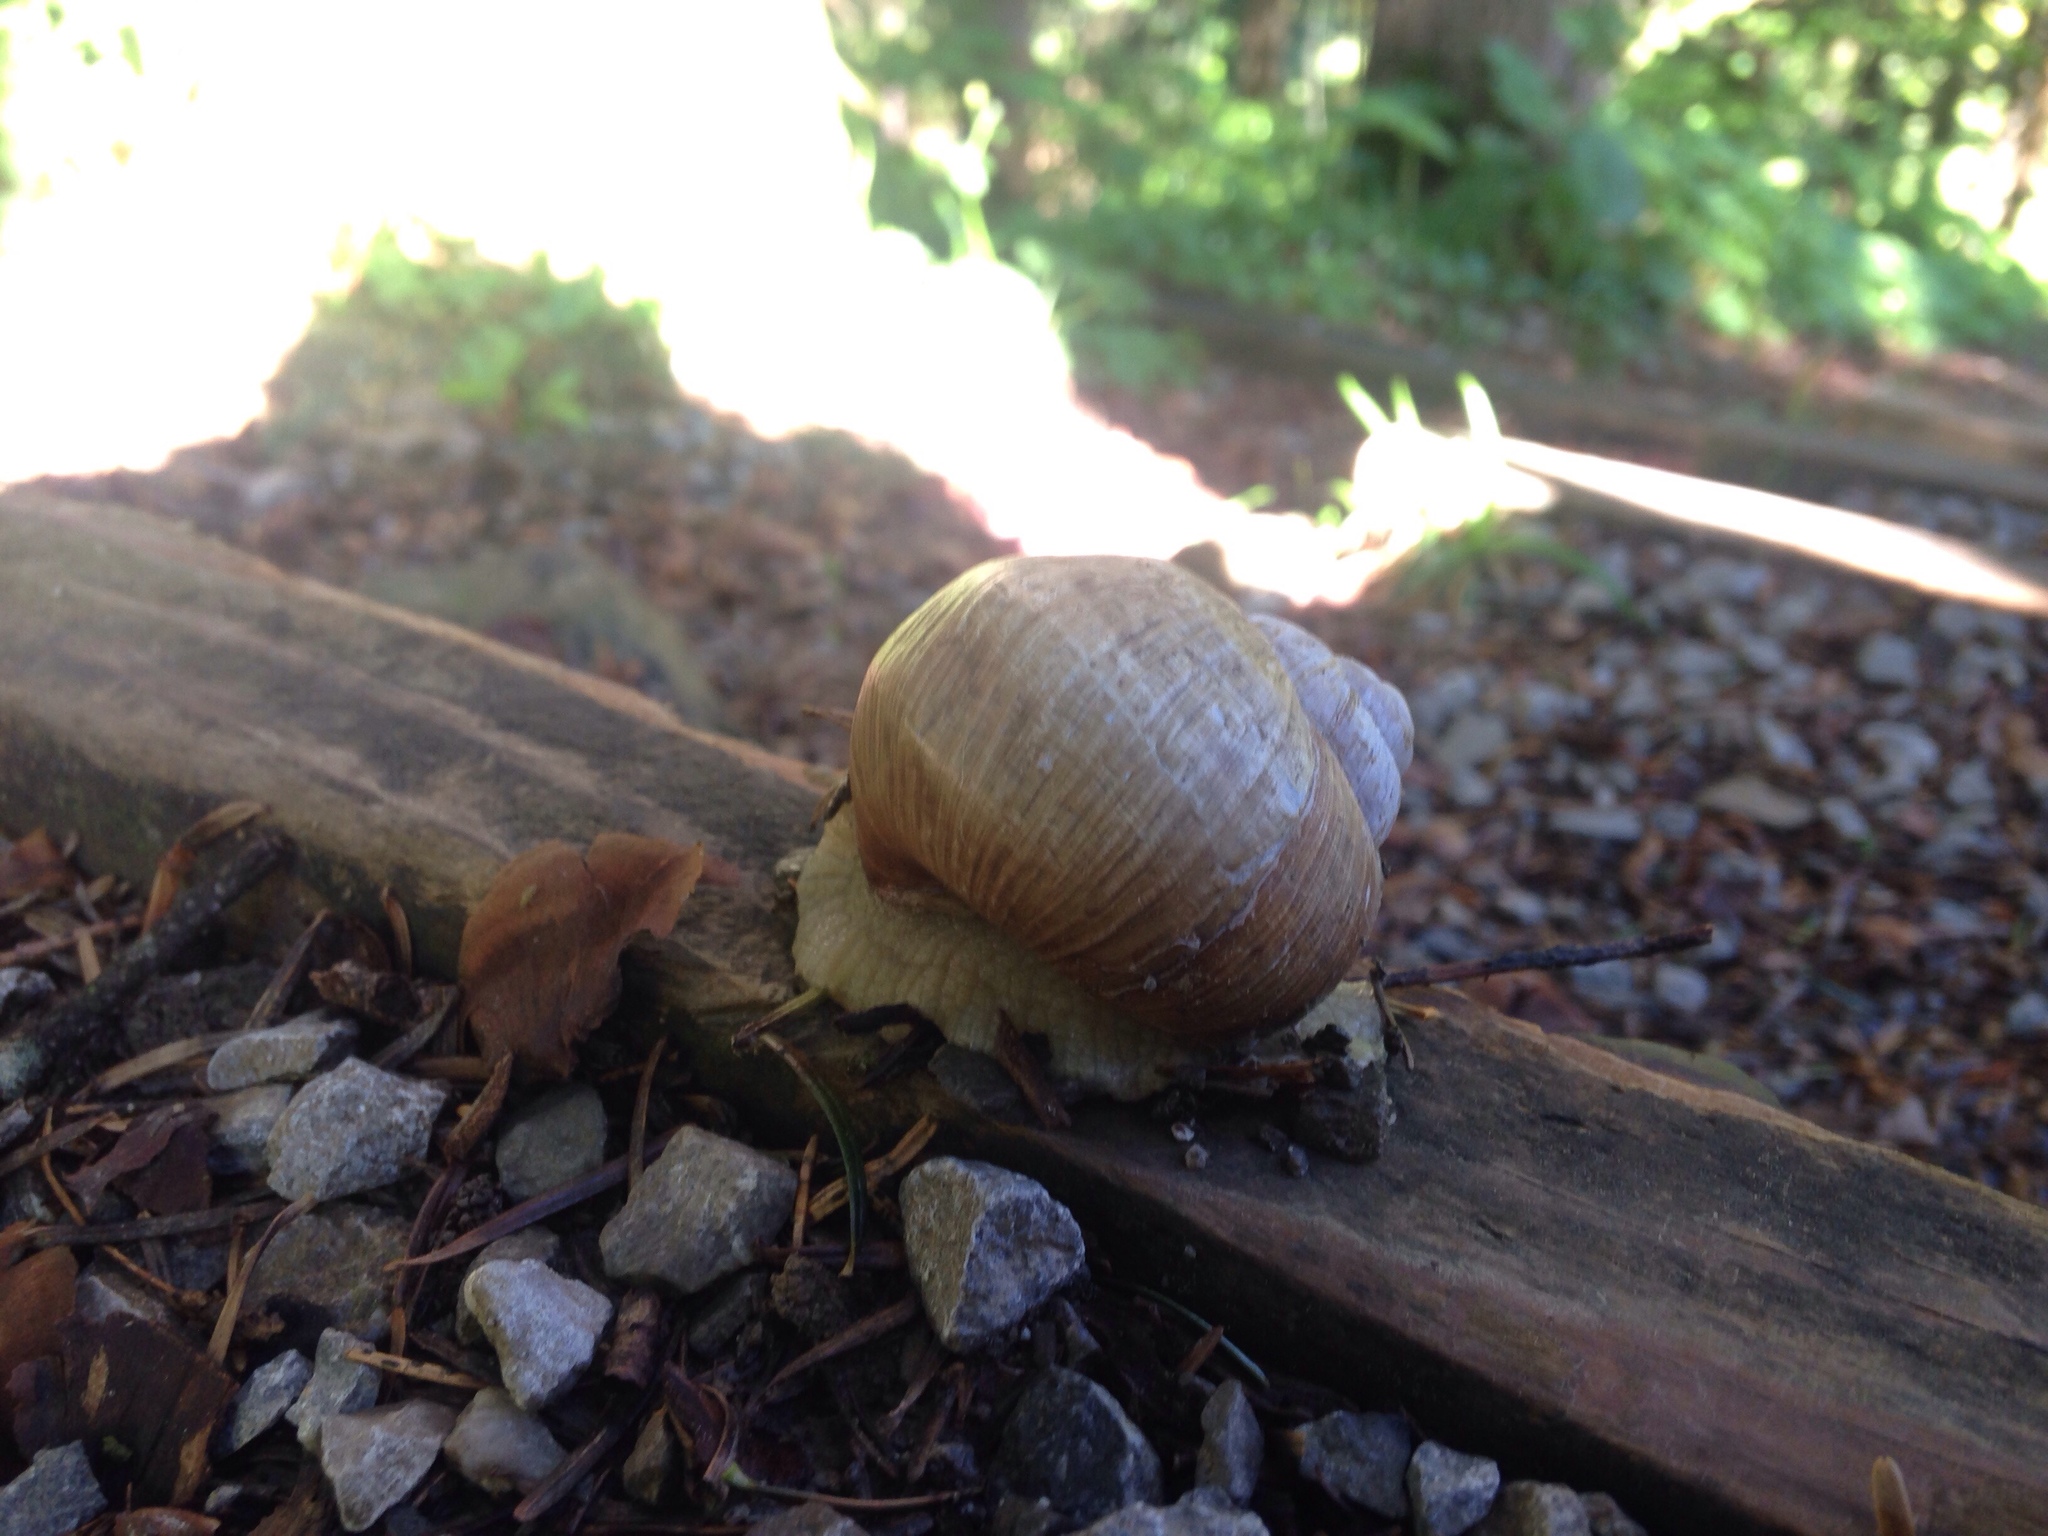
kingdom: Animalia
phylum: Mollusca
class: Gastropoda
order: Stylommatophora
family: Helicidae
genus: Helix
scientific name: Helix pomatia
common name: Roman snail
